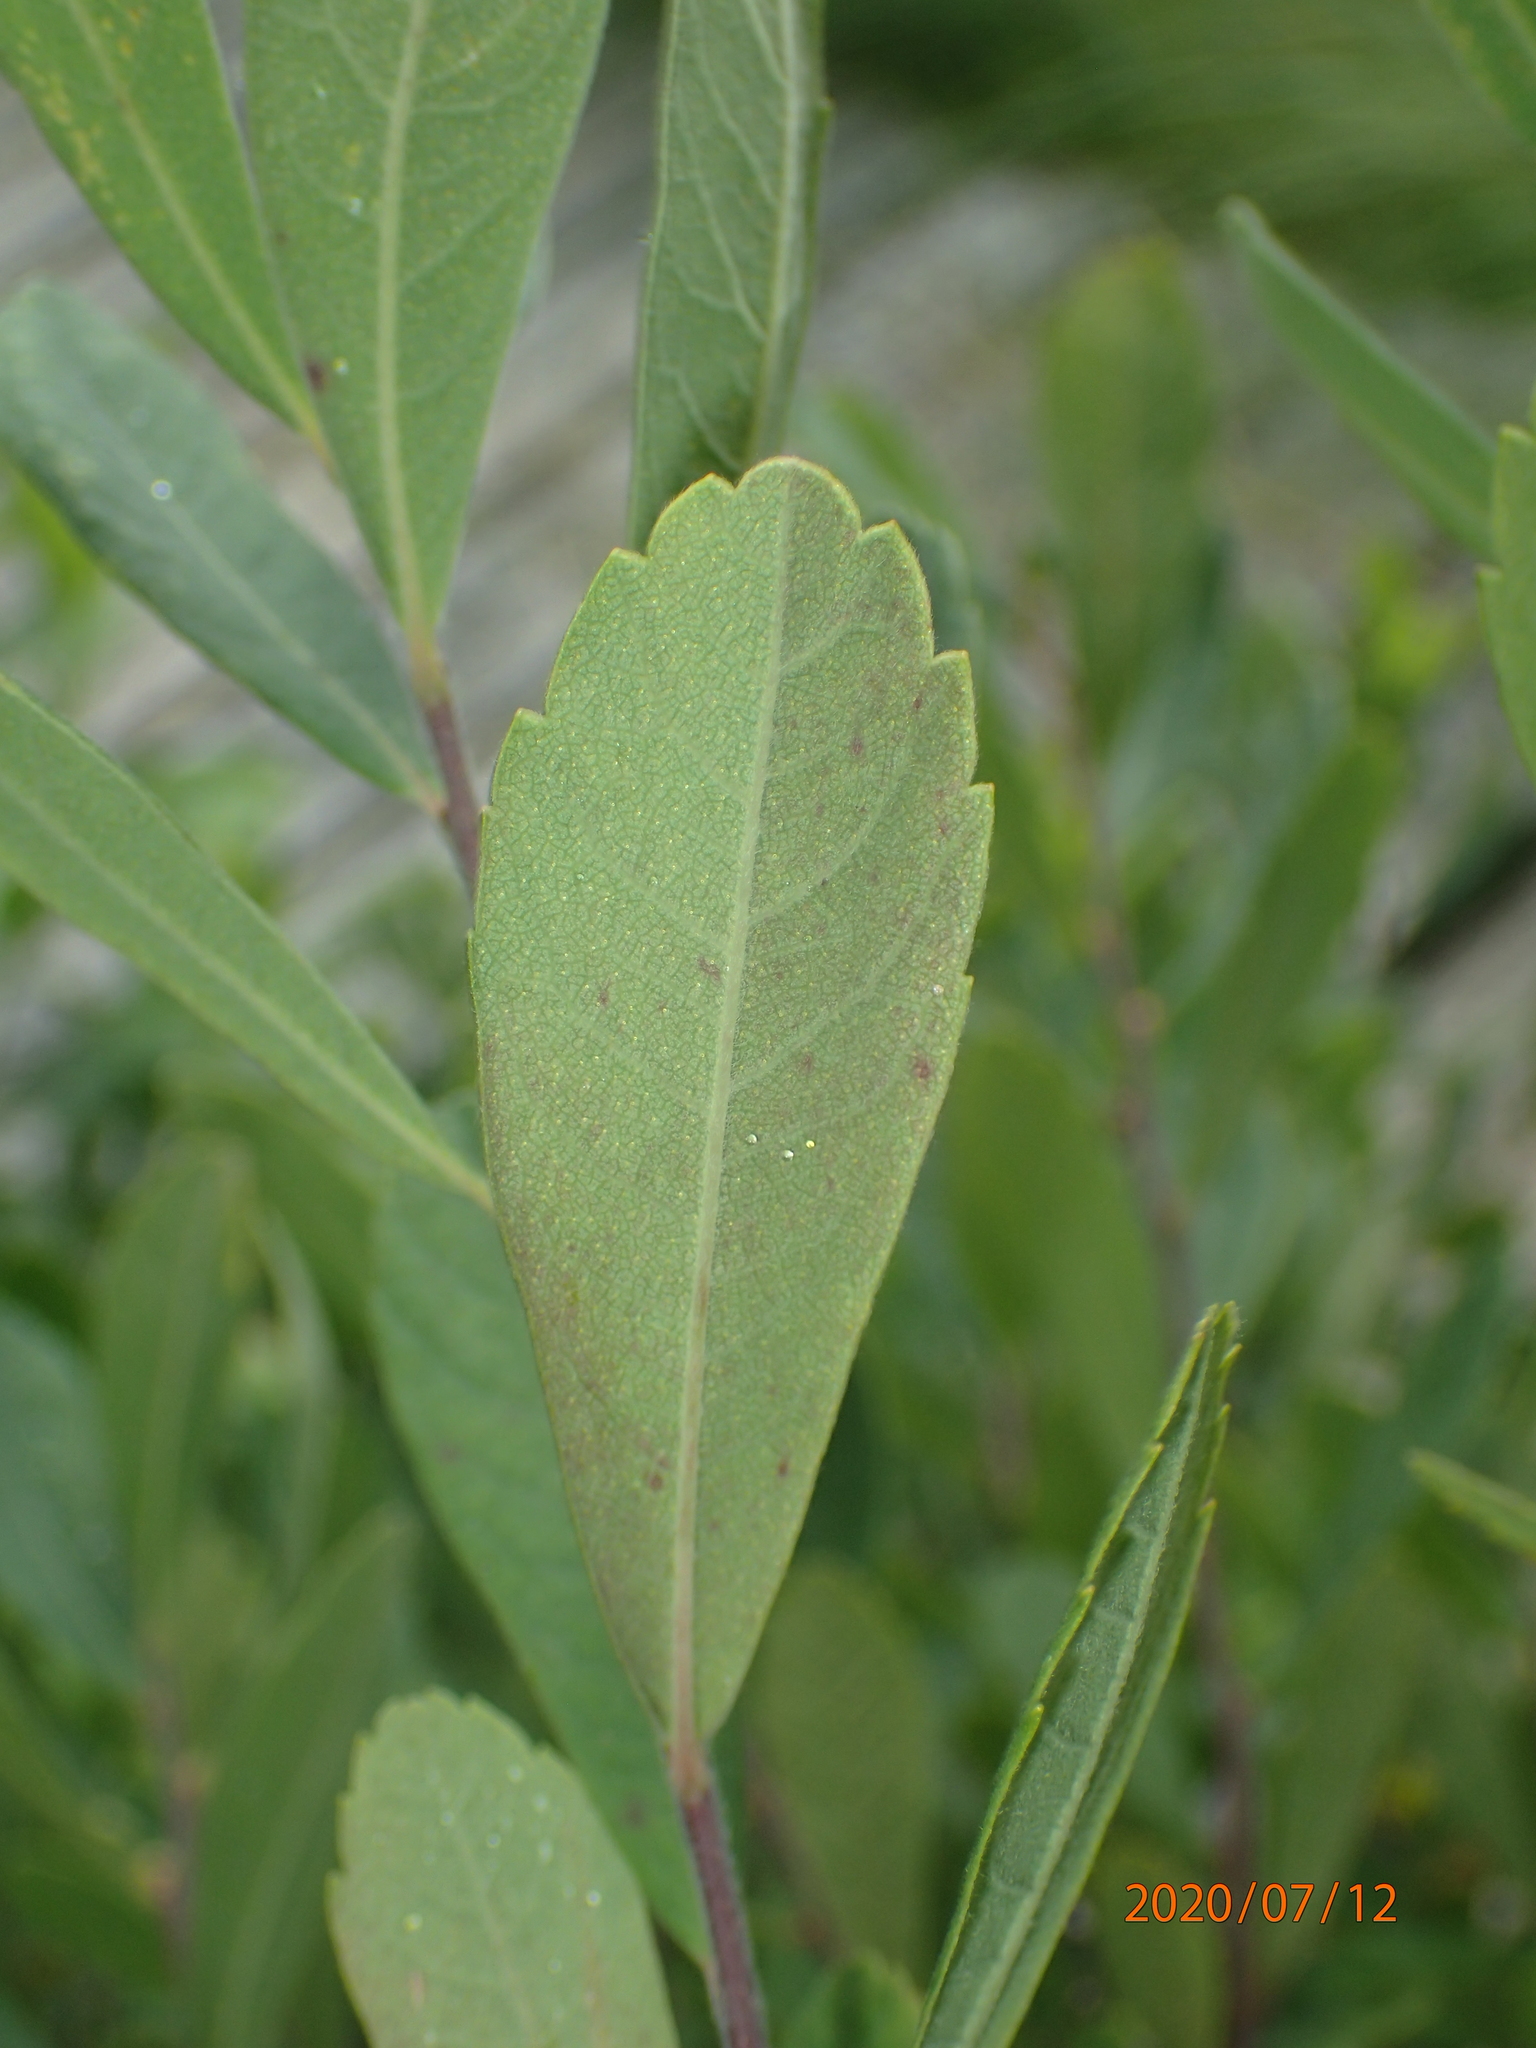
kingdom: Plantae
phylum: Tracheophyta
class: Magnoliopsida
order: Fagales
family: Myricaceae
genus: Myrica
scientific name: Myrica gale
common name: Sweet gale
